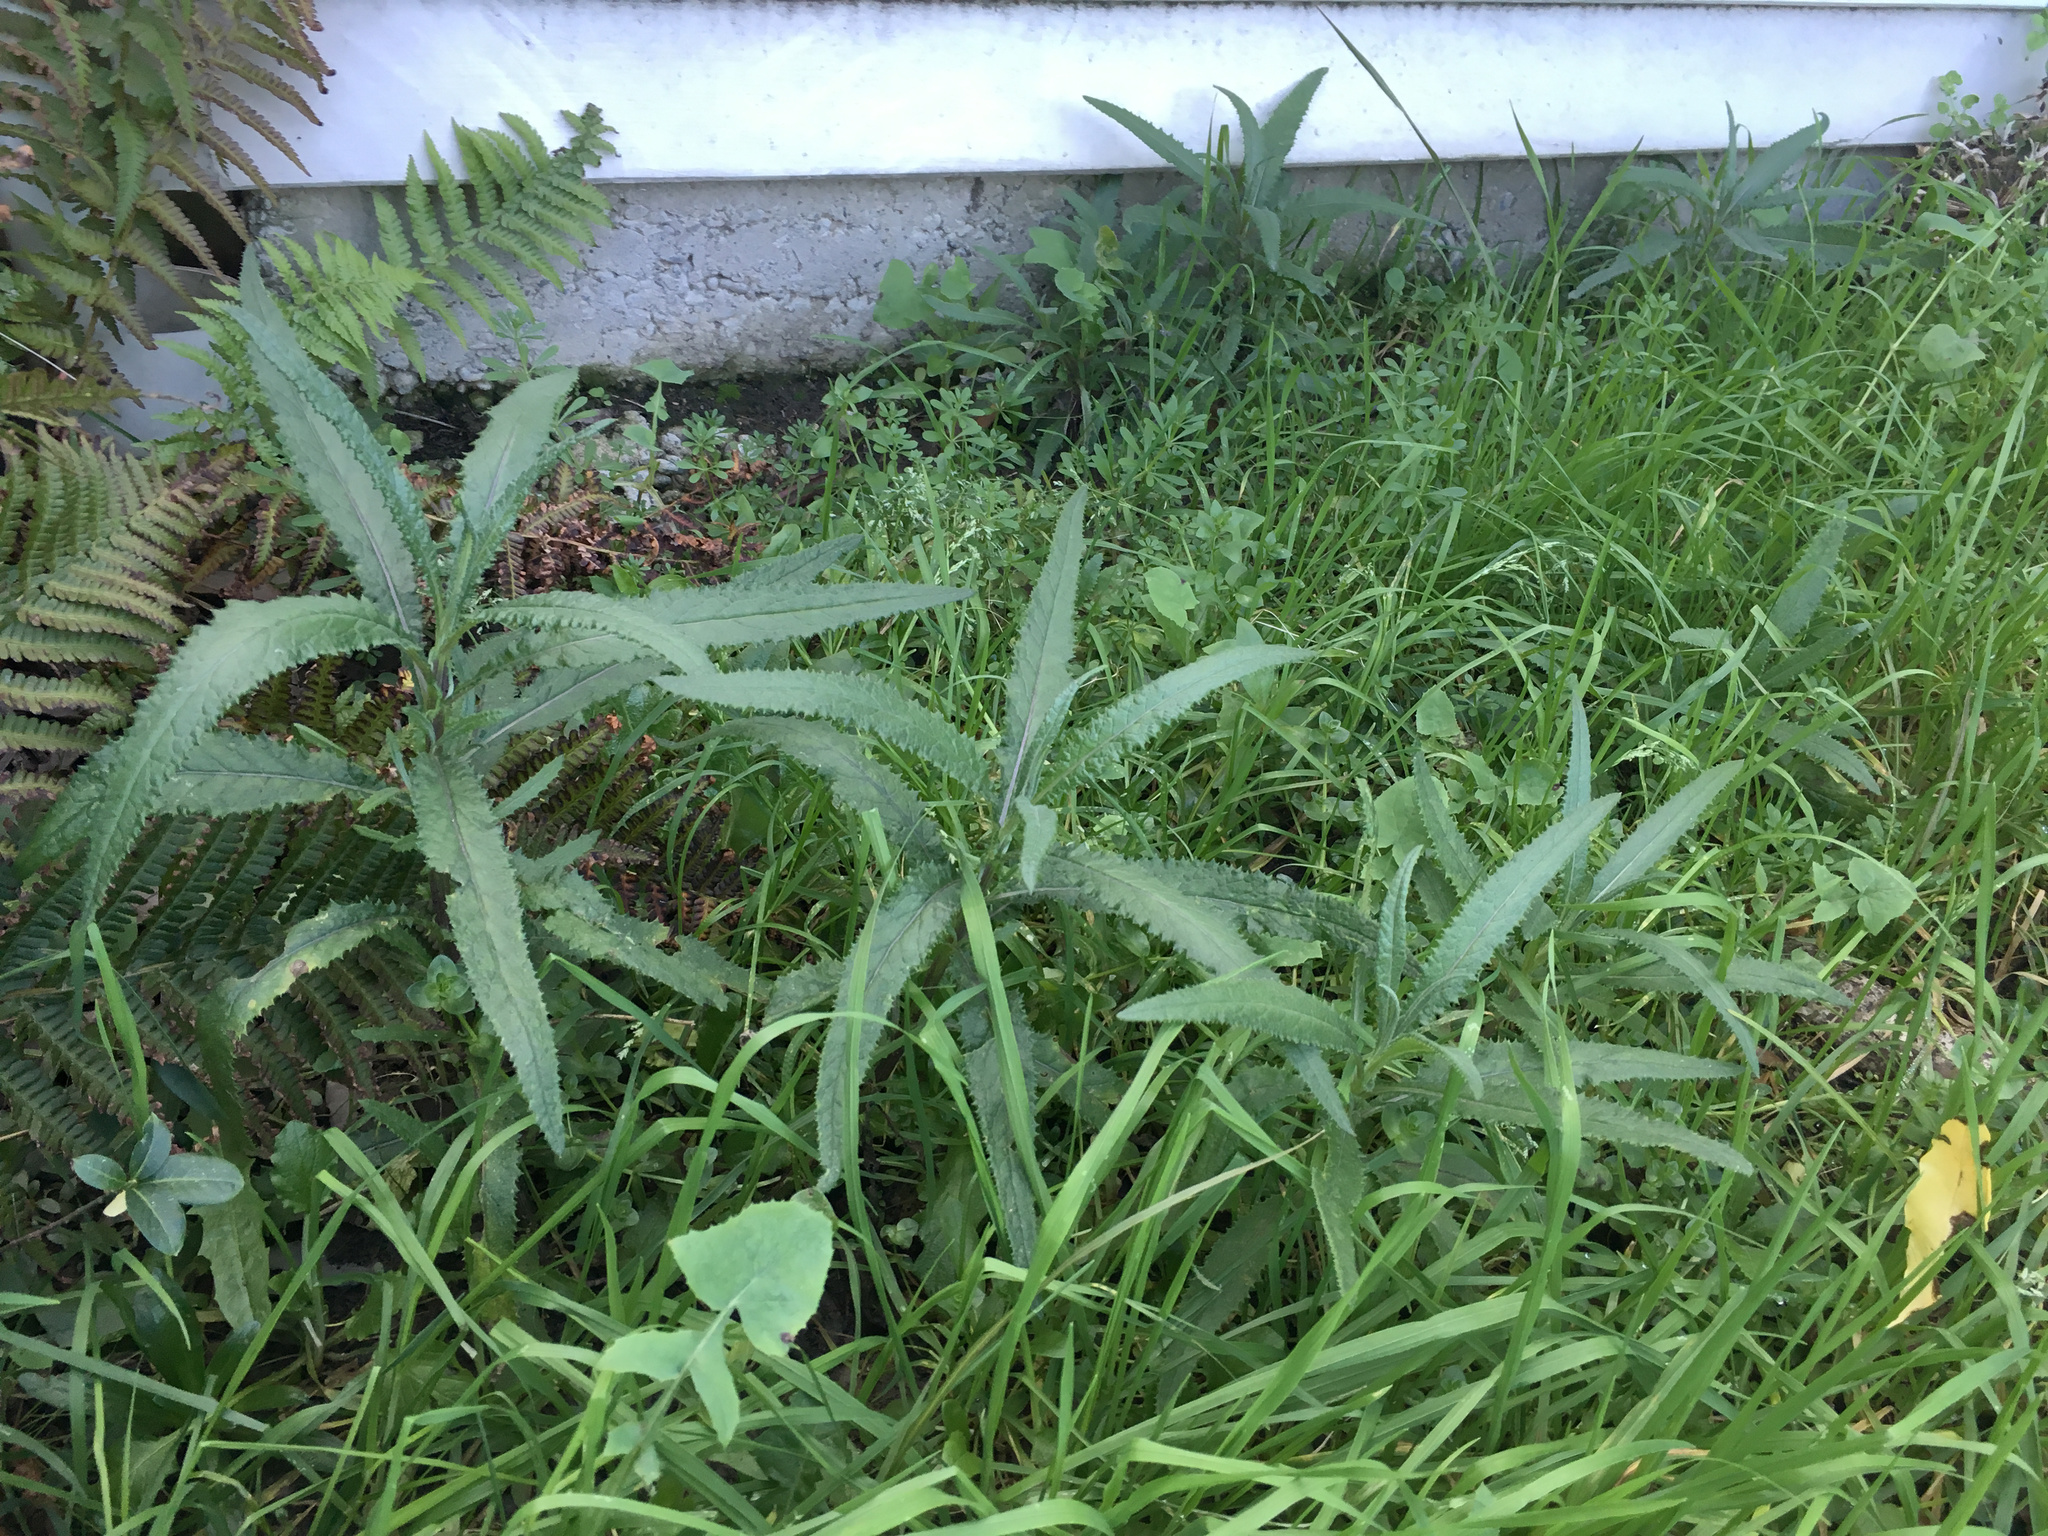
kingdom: Plantae
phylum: Tracheophyta
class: Magnoliopsida
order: Asterales
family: Asteraceae
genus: Senecio
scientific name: Senecio minimus
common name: Toothed fireweed
